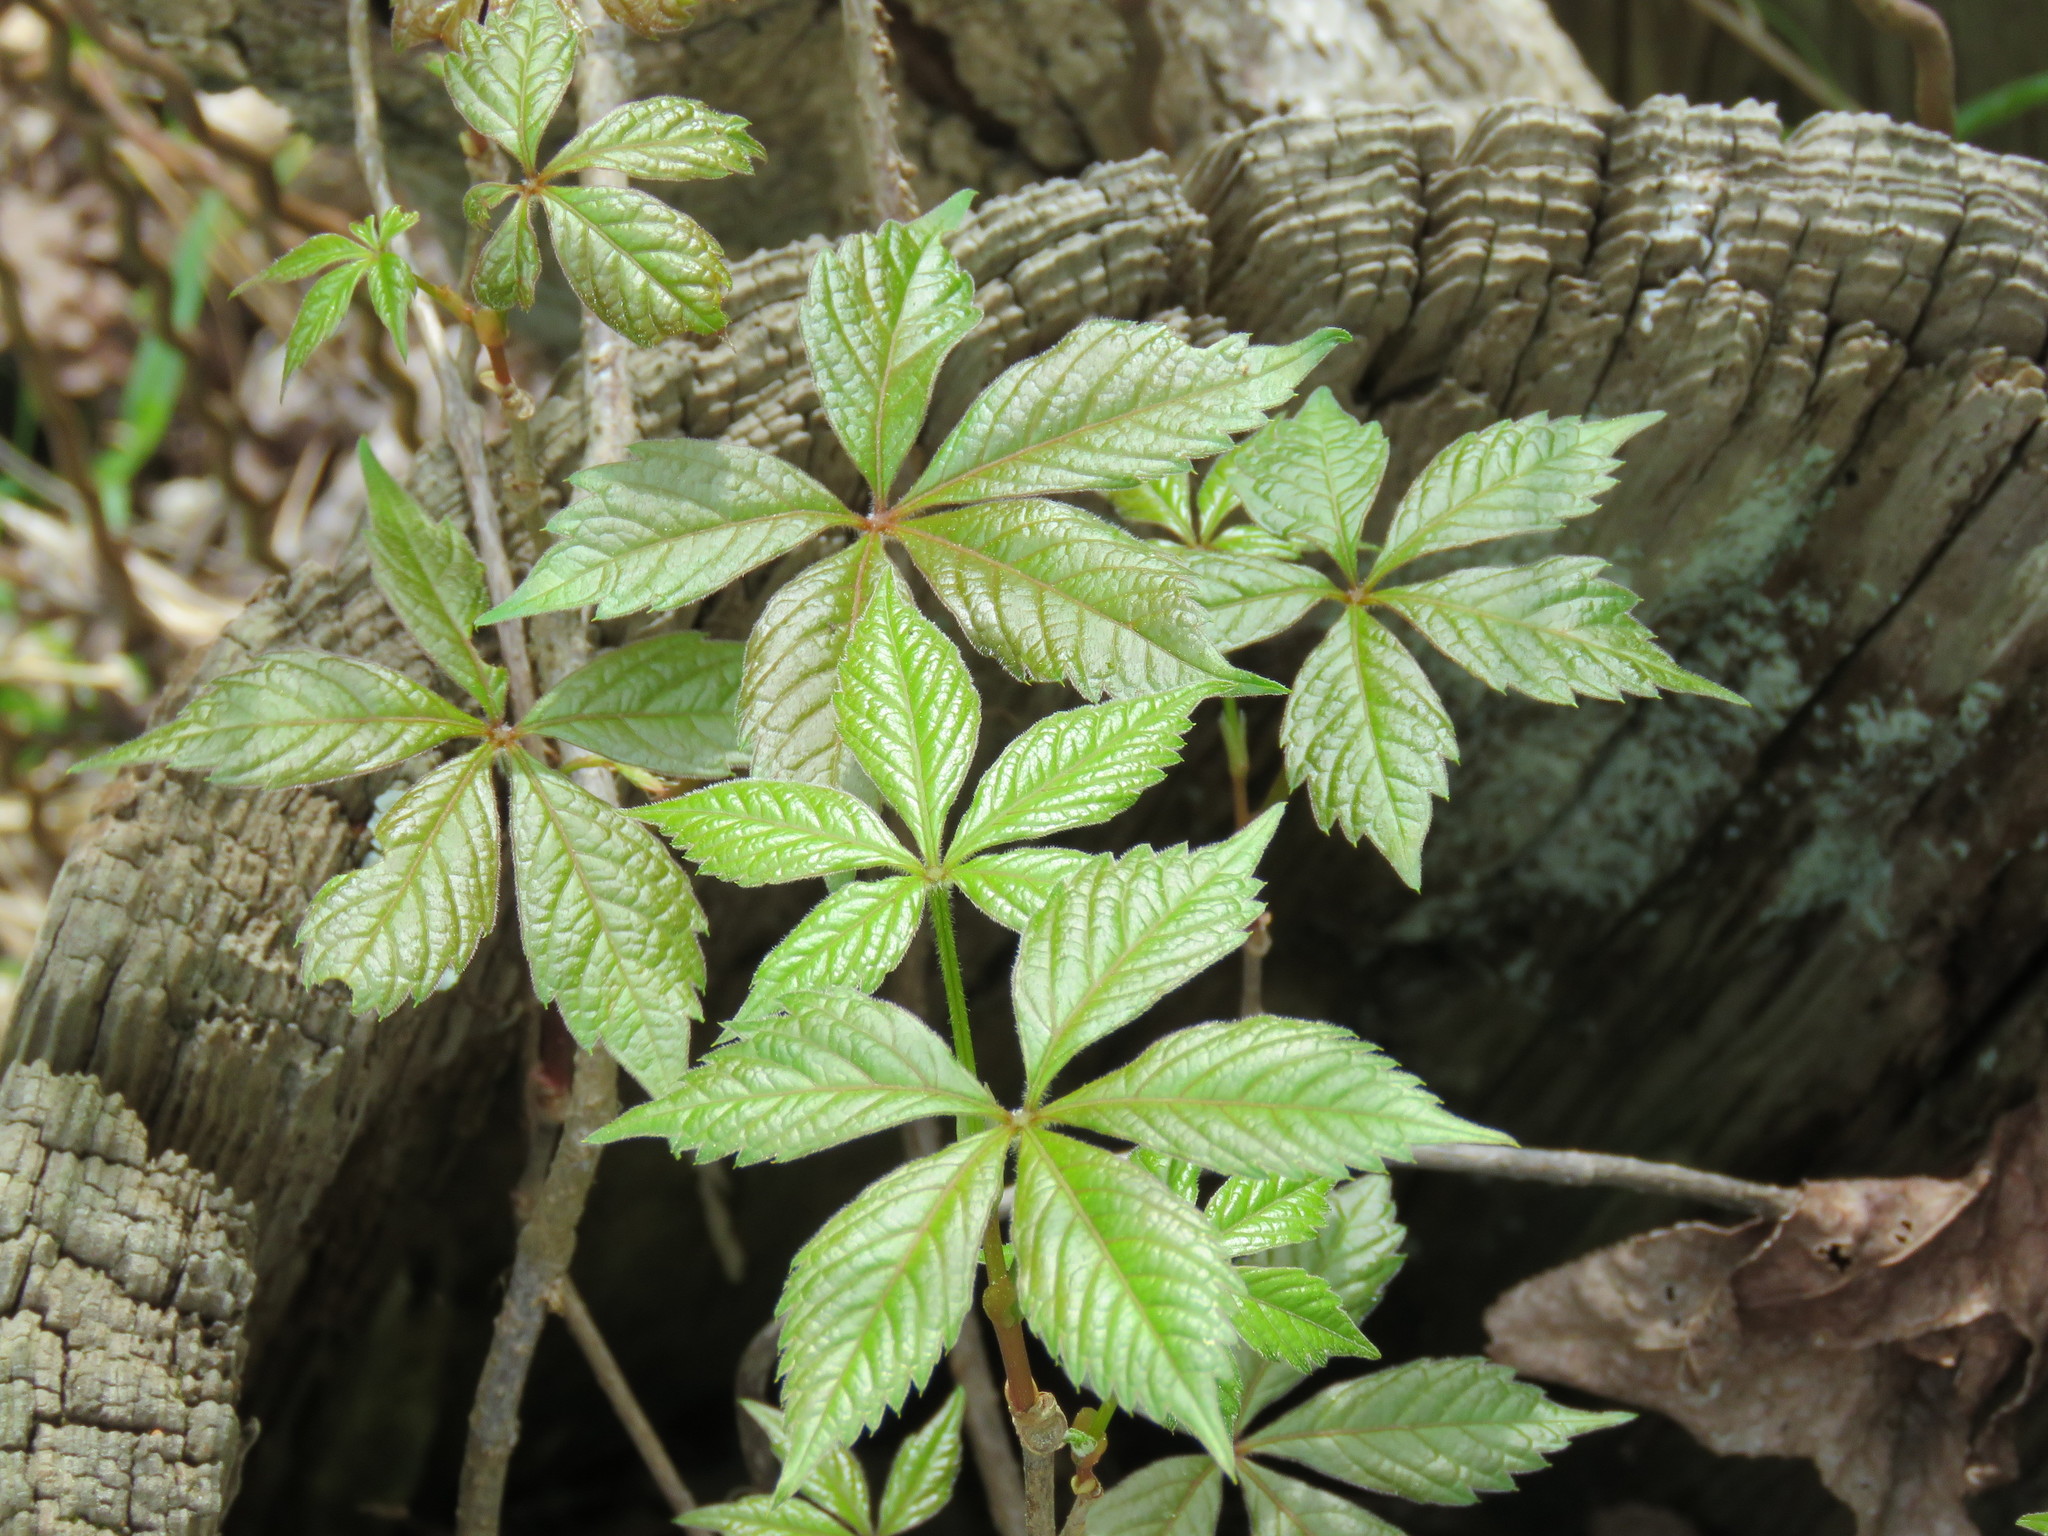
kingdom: Plantae
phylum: Tracheophyta
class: Magnoliopsida
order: Vitales
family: Vitaceae
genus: Parthenocissus
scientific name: Parthenocissus quinquefolia
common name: Virginia-creeper
